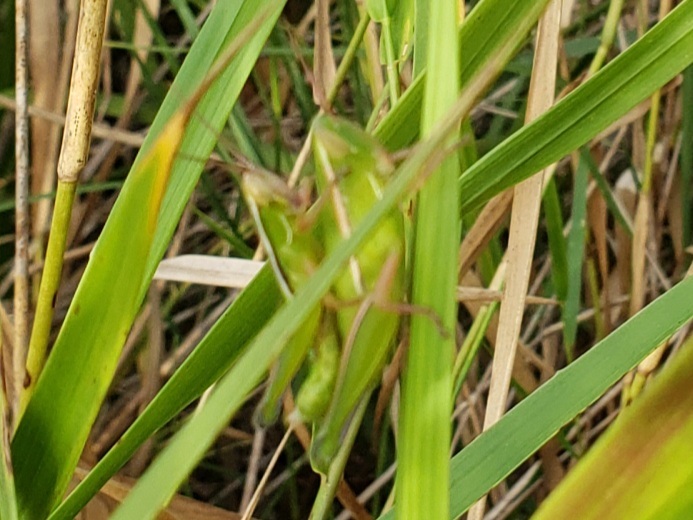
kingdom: Animalia
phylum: Arthropoda
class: Insecta
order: Orthoptera
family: Acrididae
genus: Aptenopedes
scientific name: Aptenopedes sphenarioides
